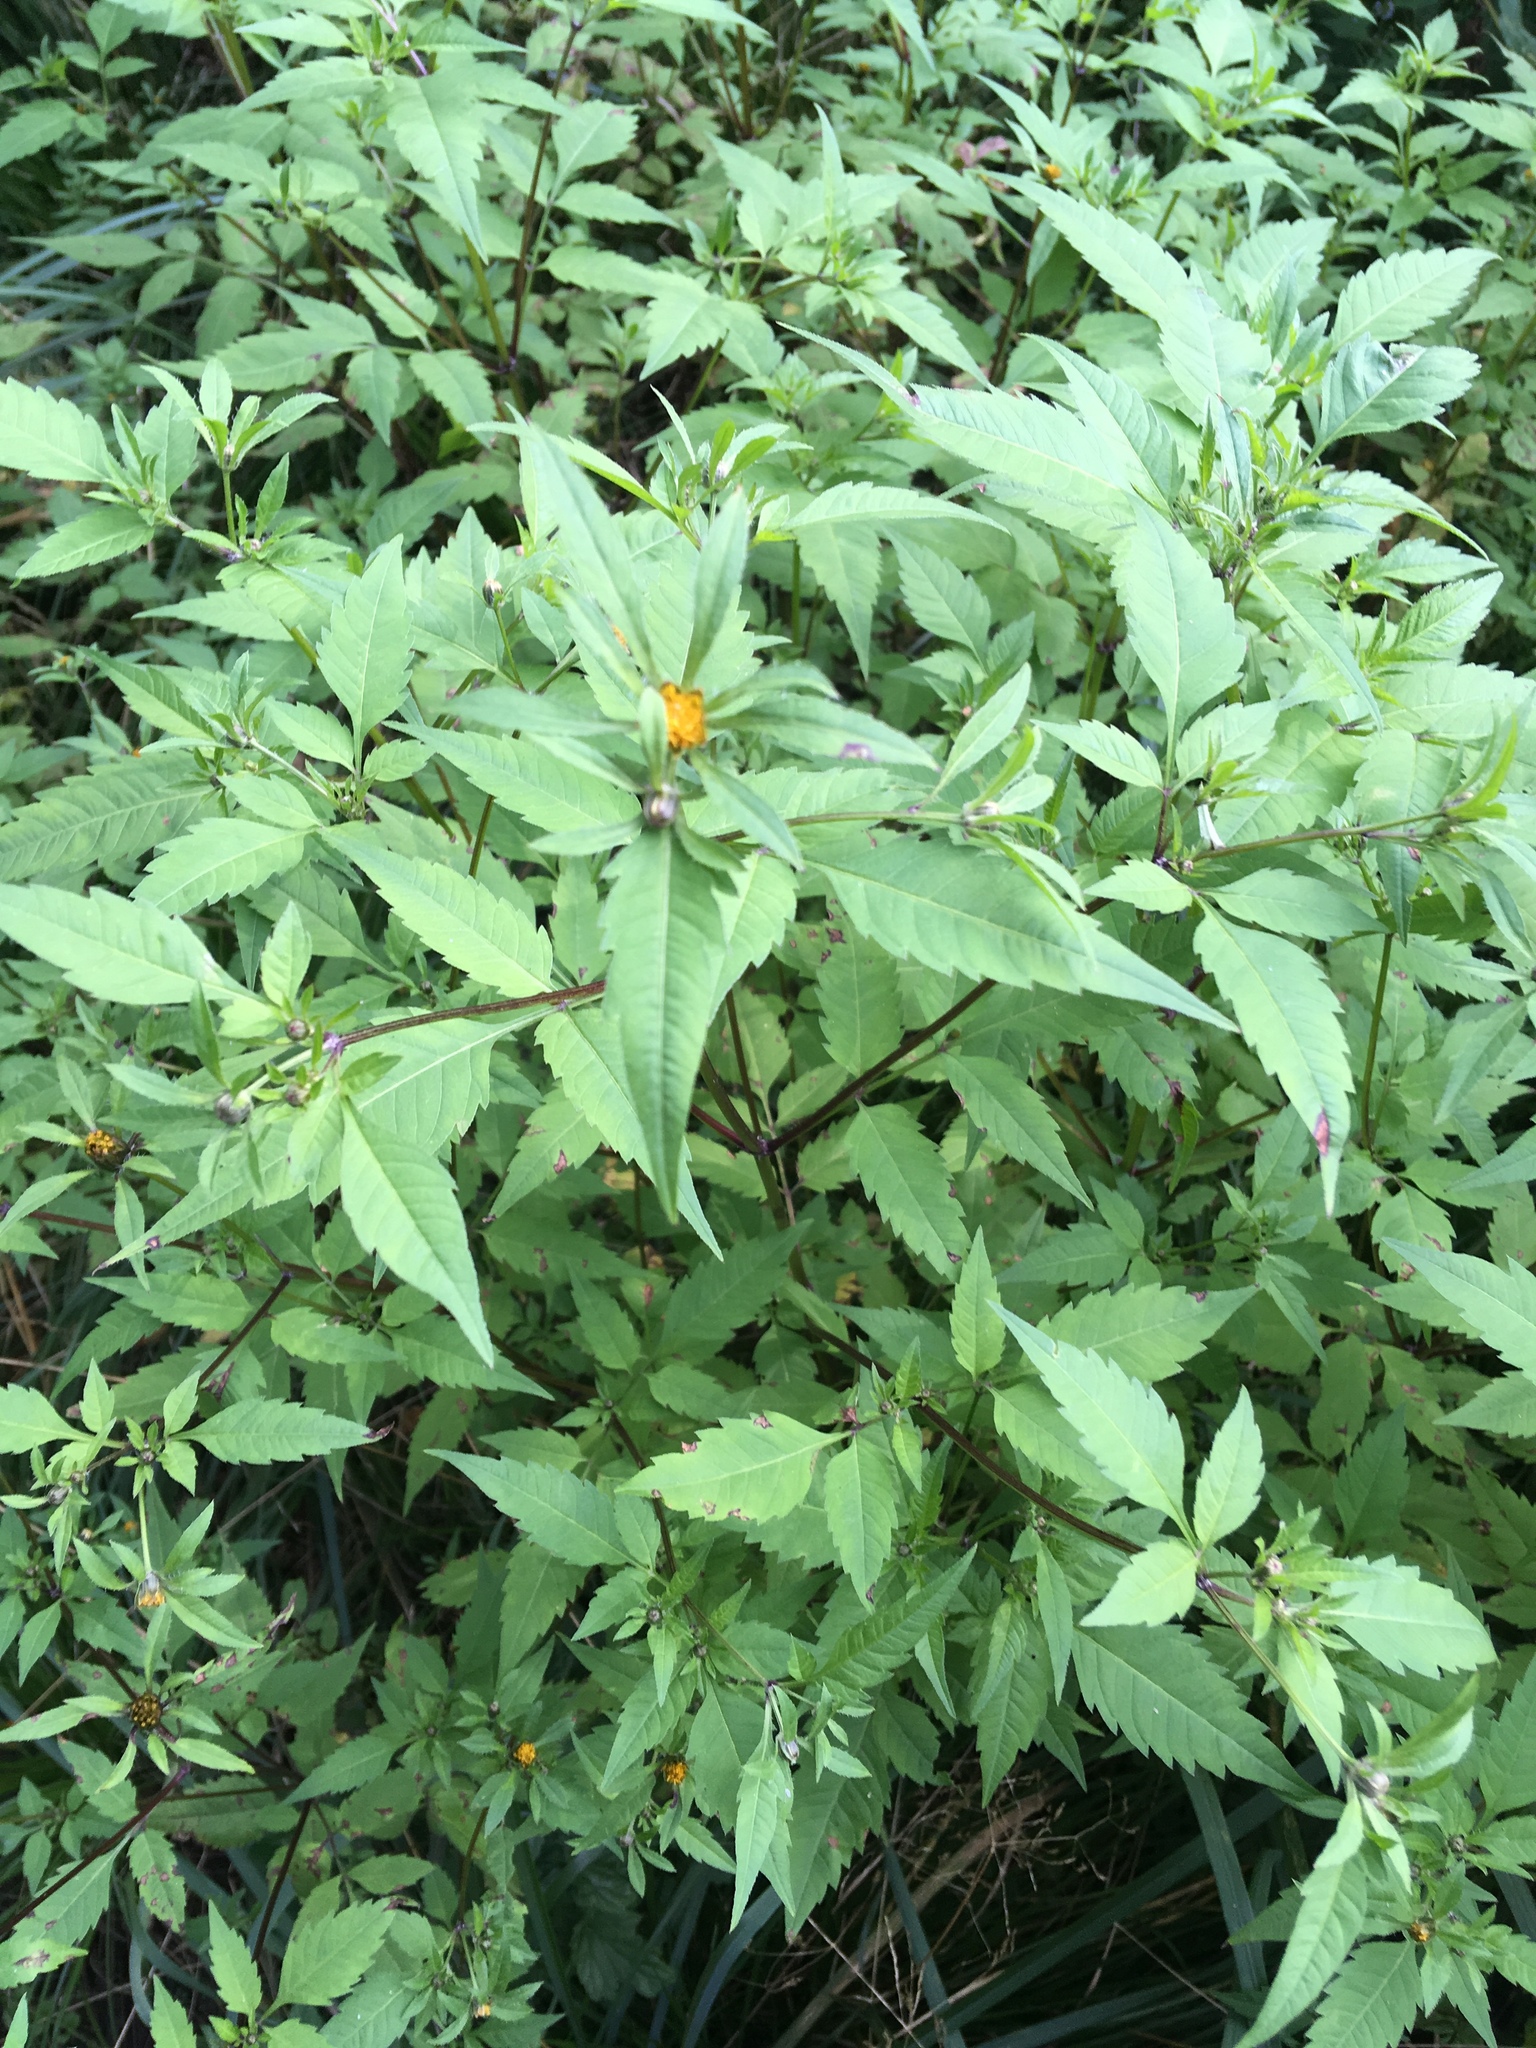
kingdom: Plantae
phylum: Tracheophyta
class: Magnoliopsida
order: Asterales
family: Asteraceae
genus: Bidens
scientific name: Bidens frondosa
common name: Beggarticks
